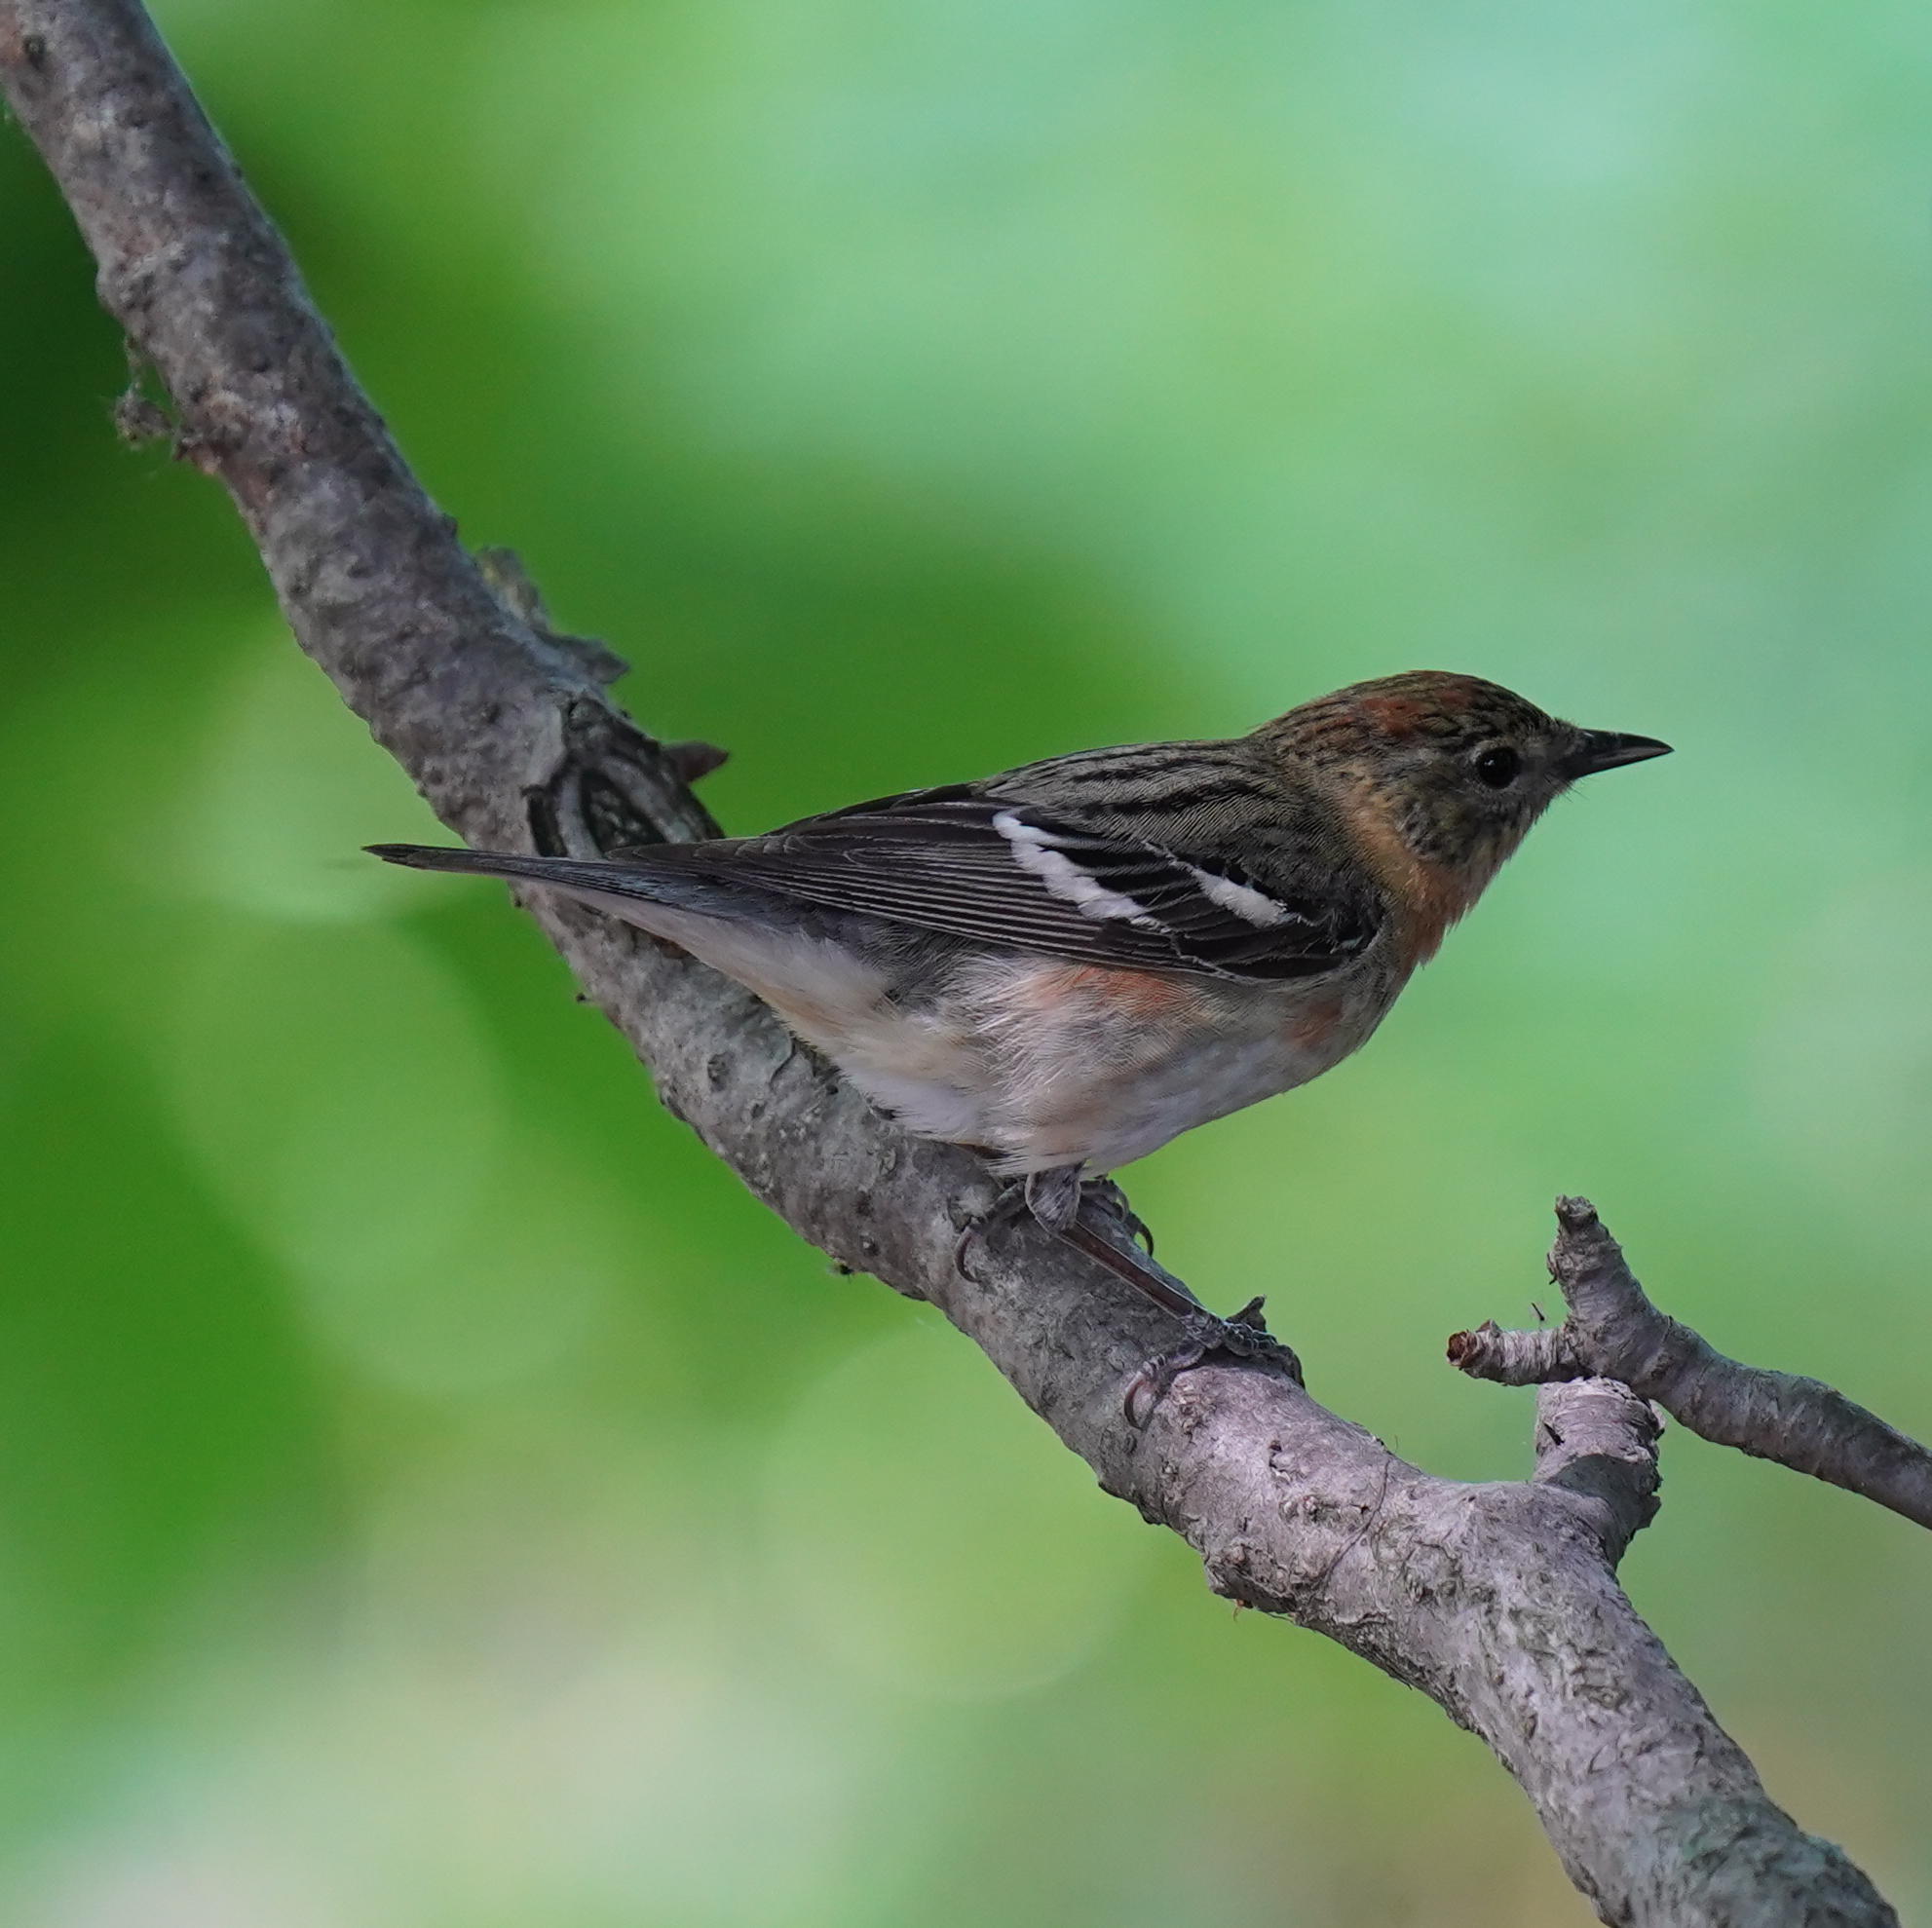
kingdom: Animalia
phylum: Chordata
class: Aves
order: Passeriformes
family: Parulidae
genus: Setophaga
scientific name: Setophaga castanea
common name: Bay-breasted warbler
